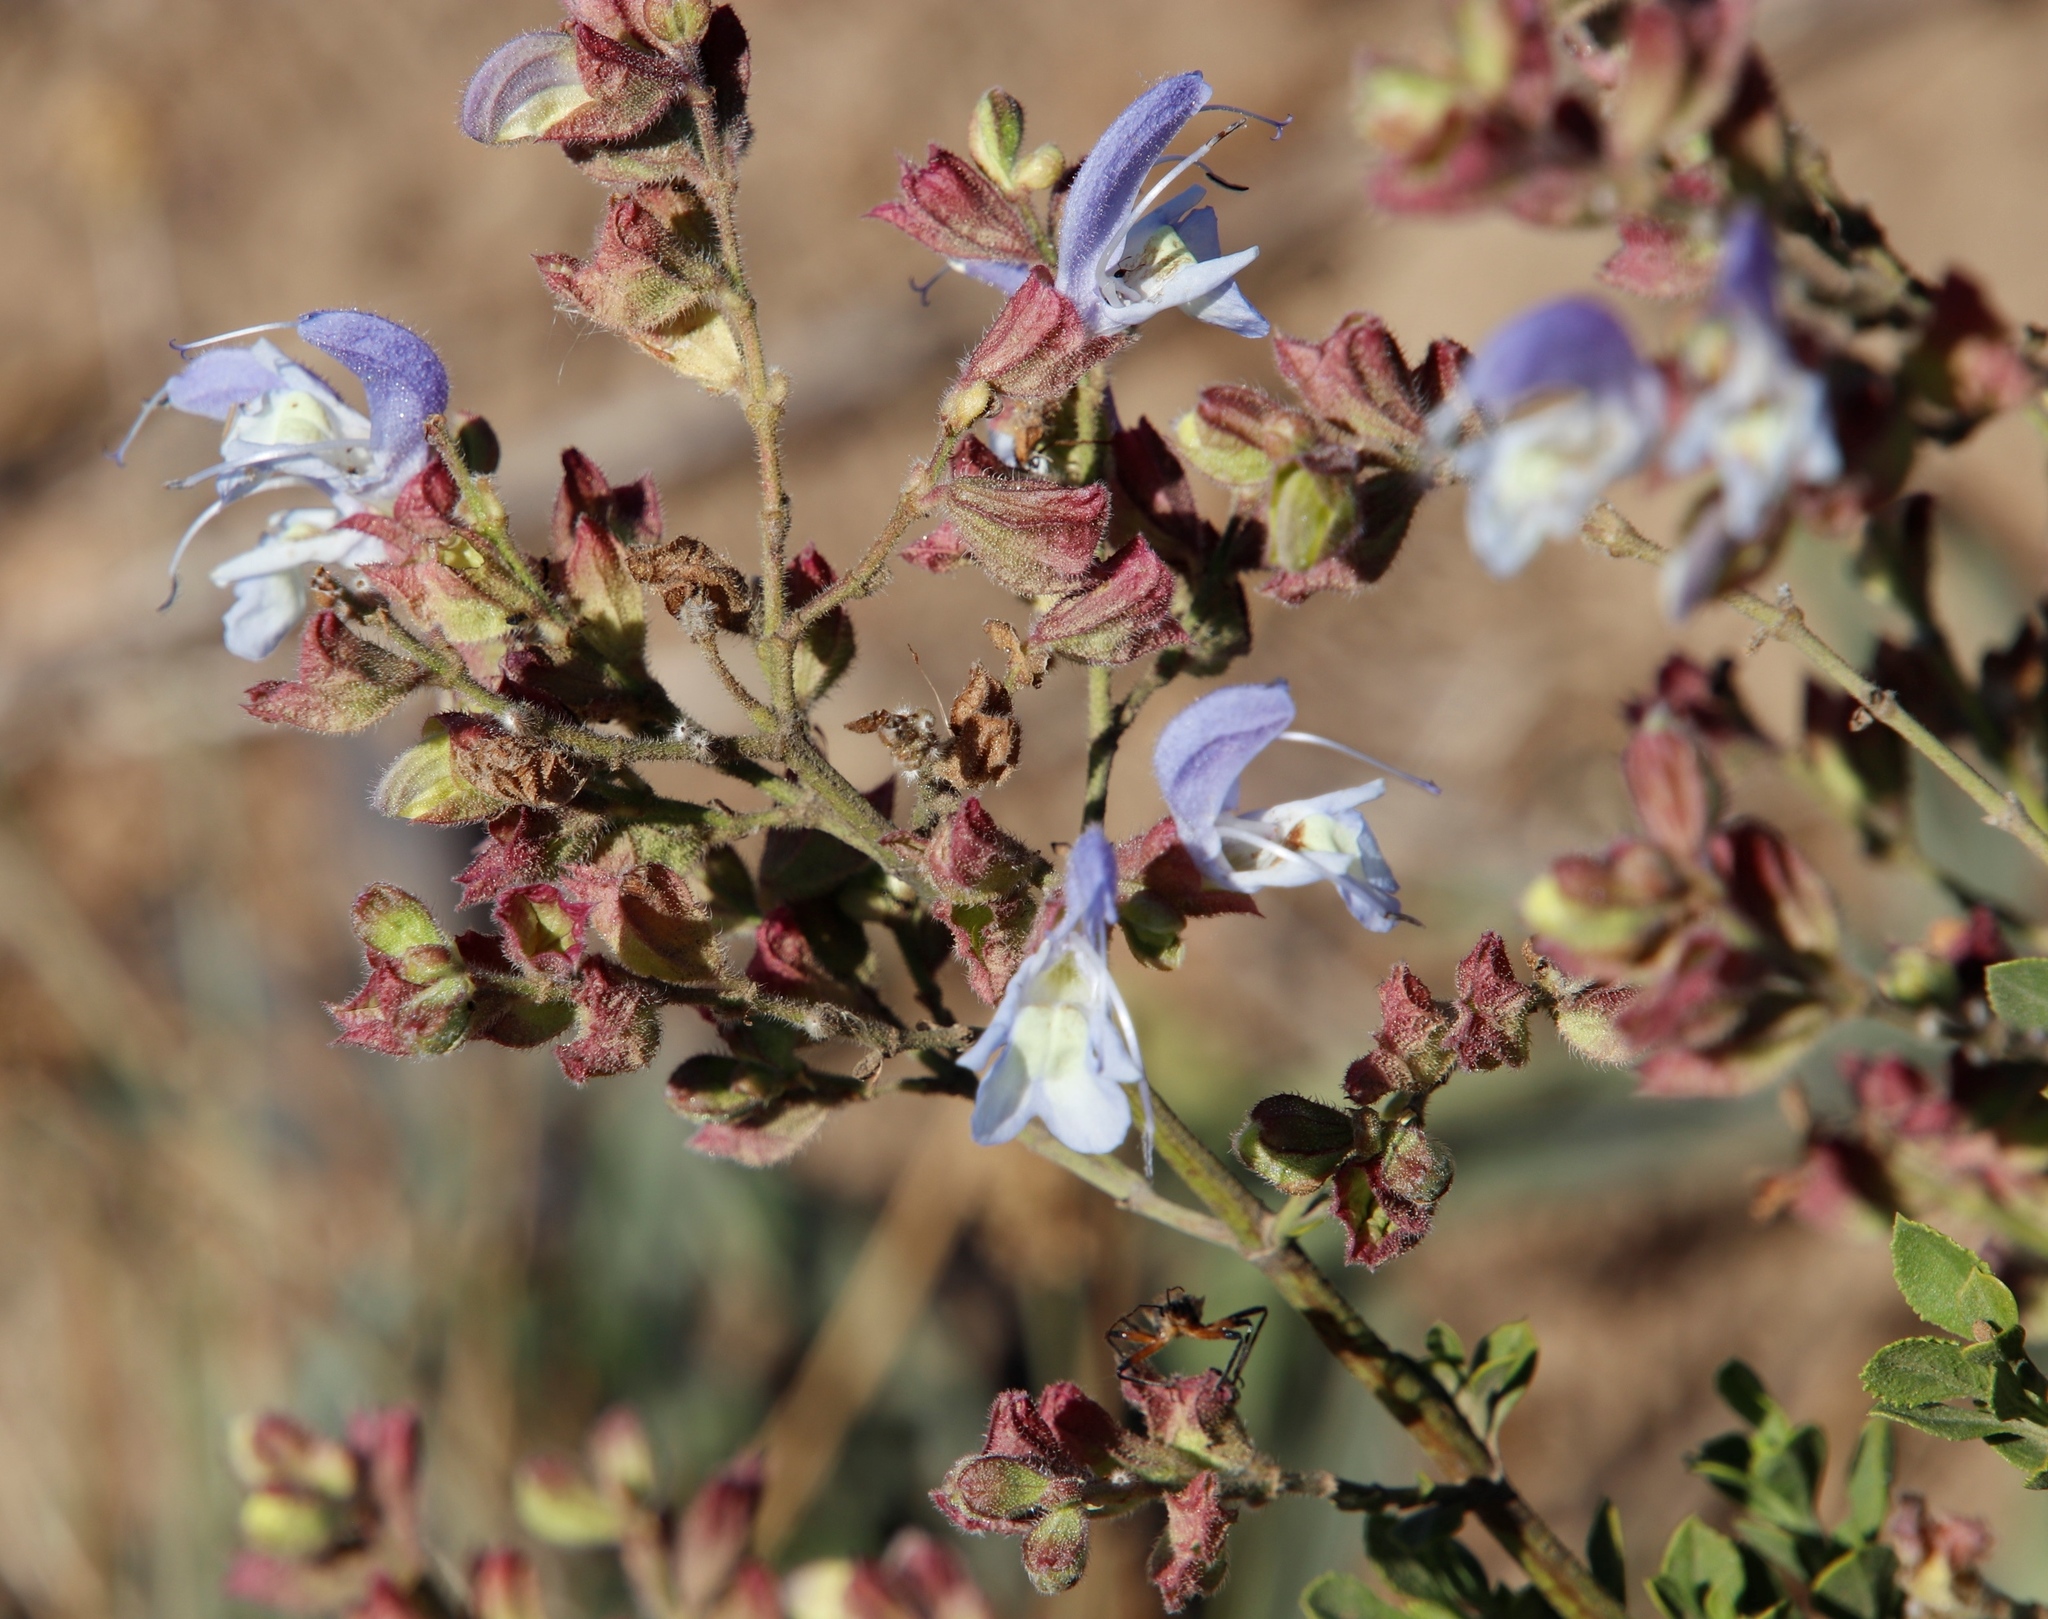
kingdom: Plantae
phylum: Tracheophyta
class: Magnoliopsida
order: Lamiales
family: Lamiaceae
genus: Salvia
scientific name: Salvia chamelaeagnea
